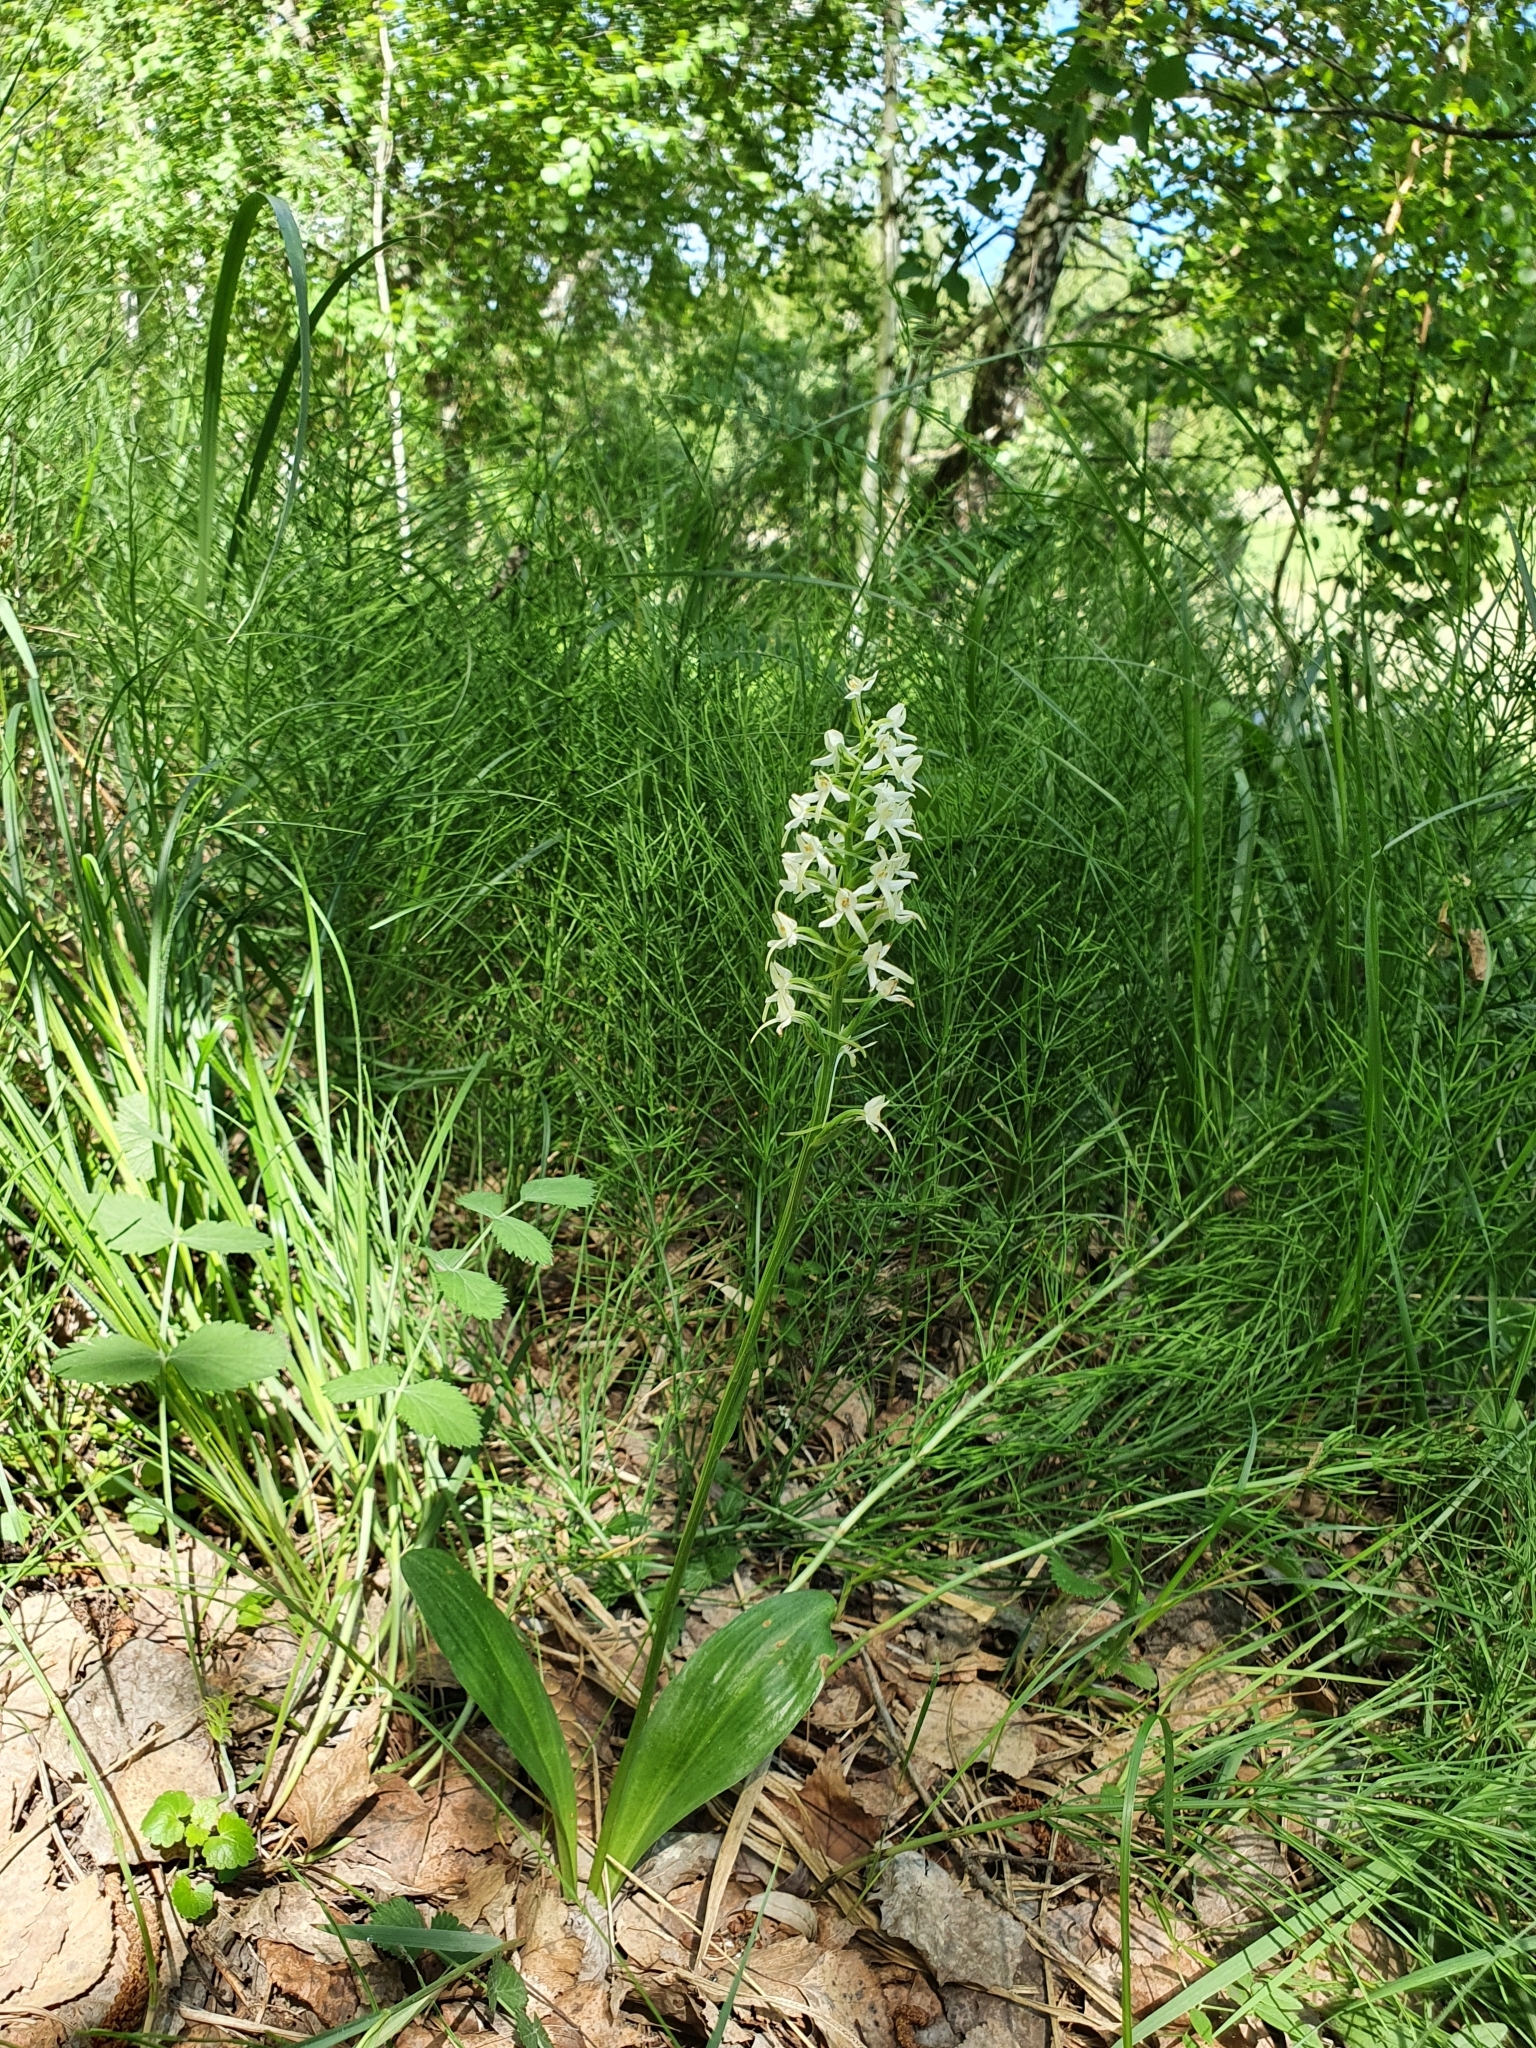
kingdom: Plantae
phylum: Tracheophyta
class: Liliopsida
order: Asparagales
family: Orchidaceae
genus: Platanthera
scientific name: Platanthera bifolia
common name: Lesser butterfly-orchid
